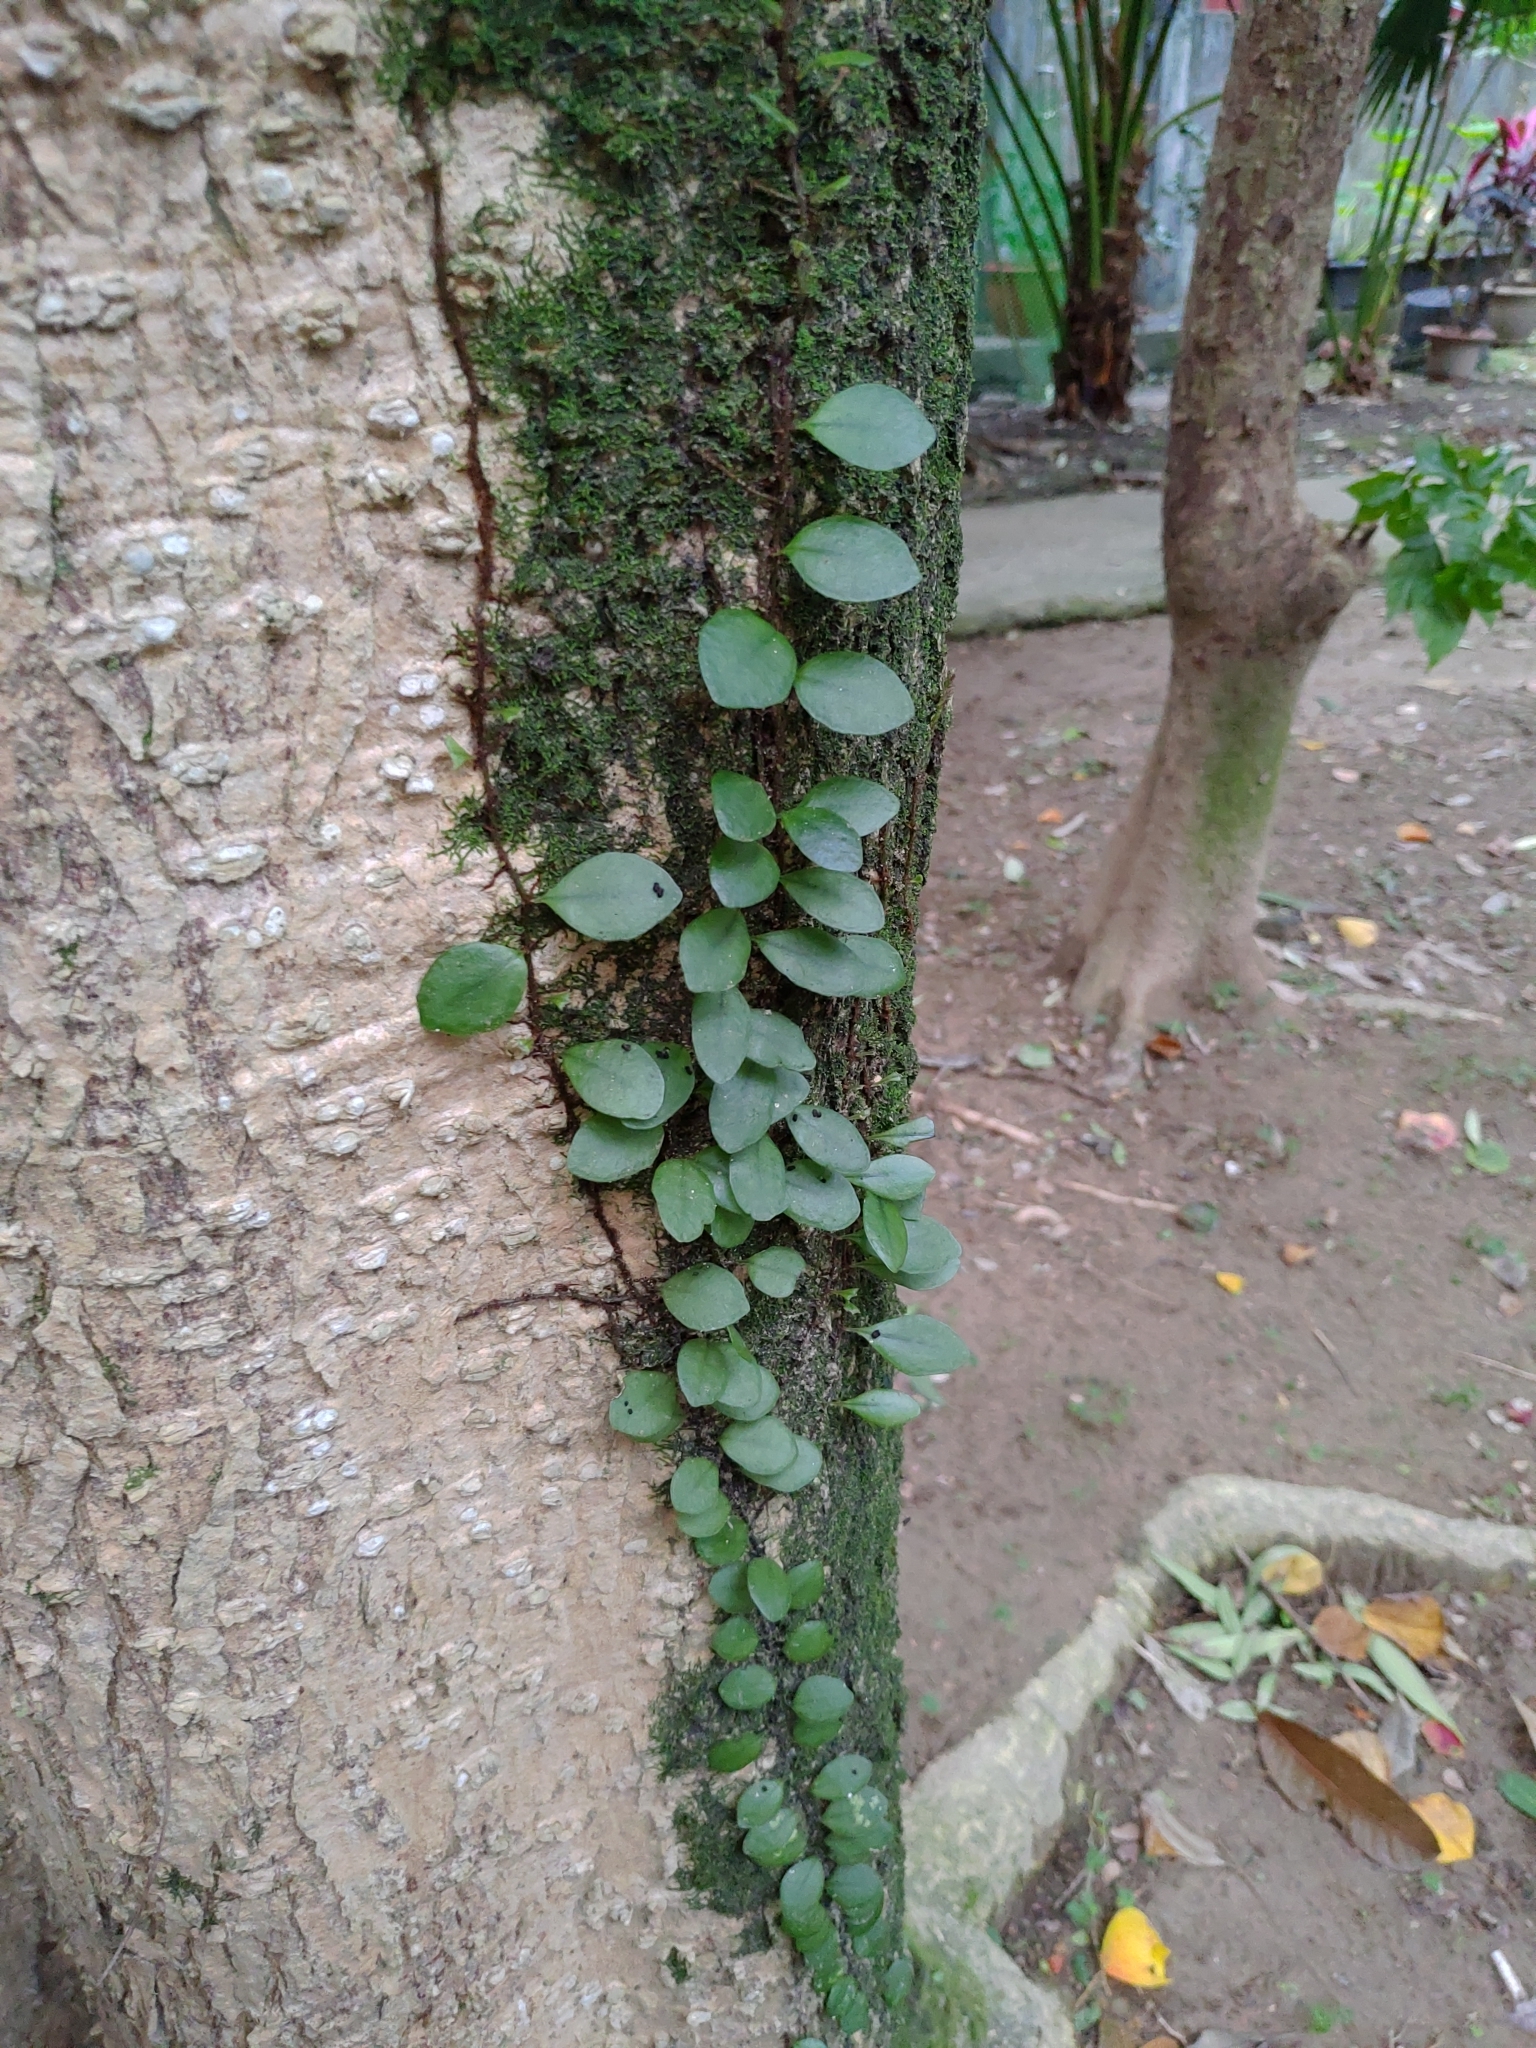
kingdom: Plantae
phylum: Tracheophyta
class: Polypodiopsida
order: Polypodiales
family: Polypodiaceae
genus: Lepisorus
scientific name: Lepisorus microphyllus
